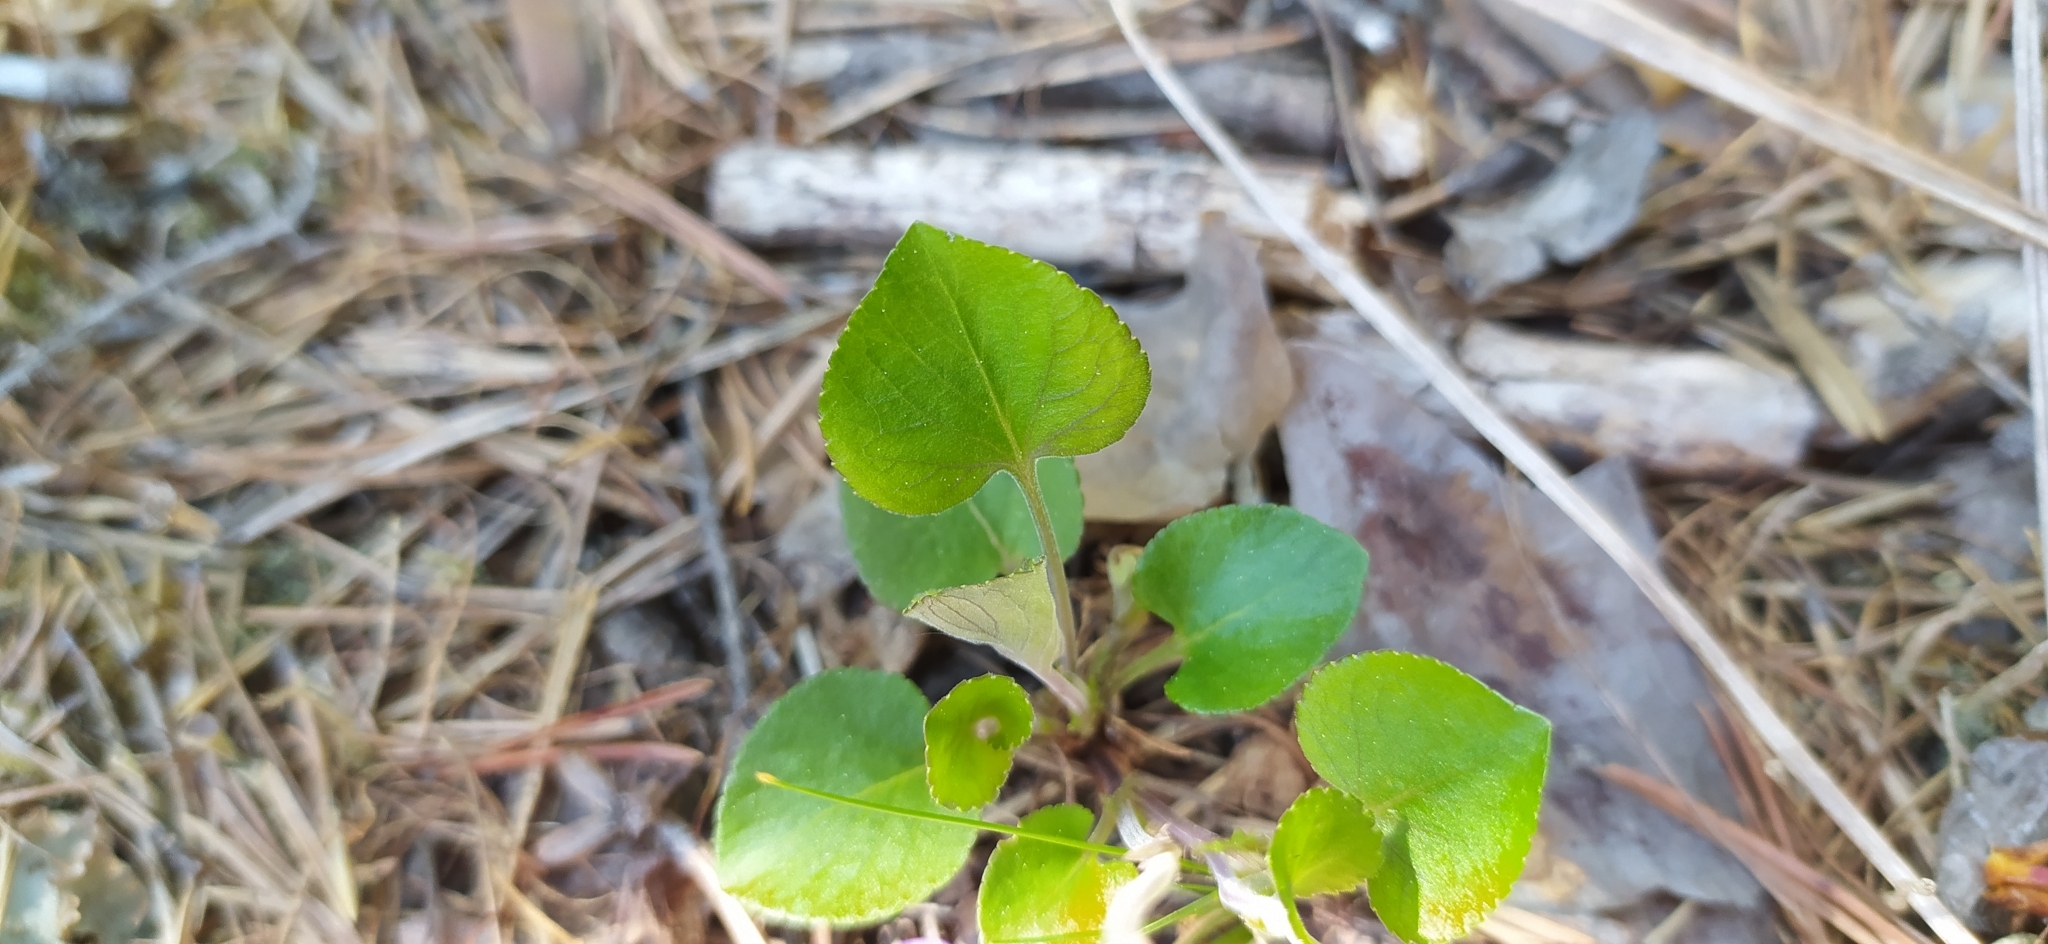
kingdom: Plantae
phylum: Tracheophyta
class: Magnoliopsida
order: Malpighiales
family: Violaceae
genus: Viola
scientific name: Viola rupestris
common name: Teesdale violet
